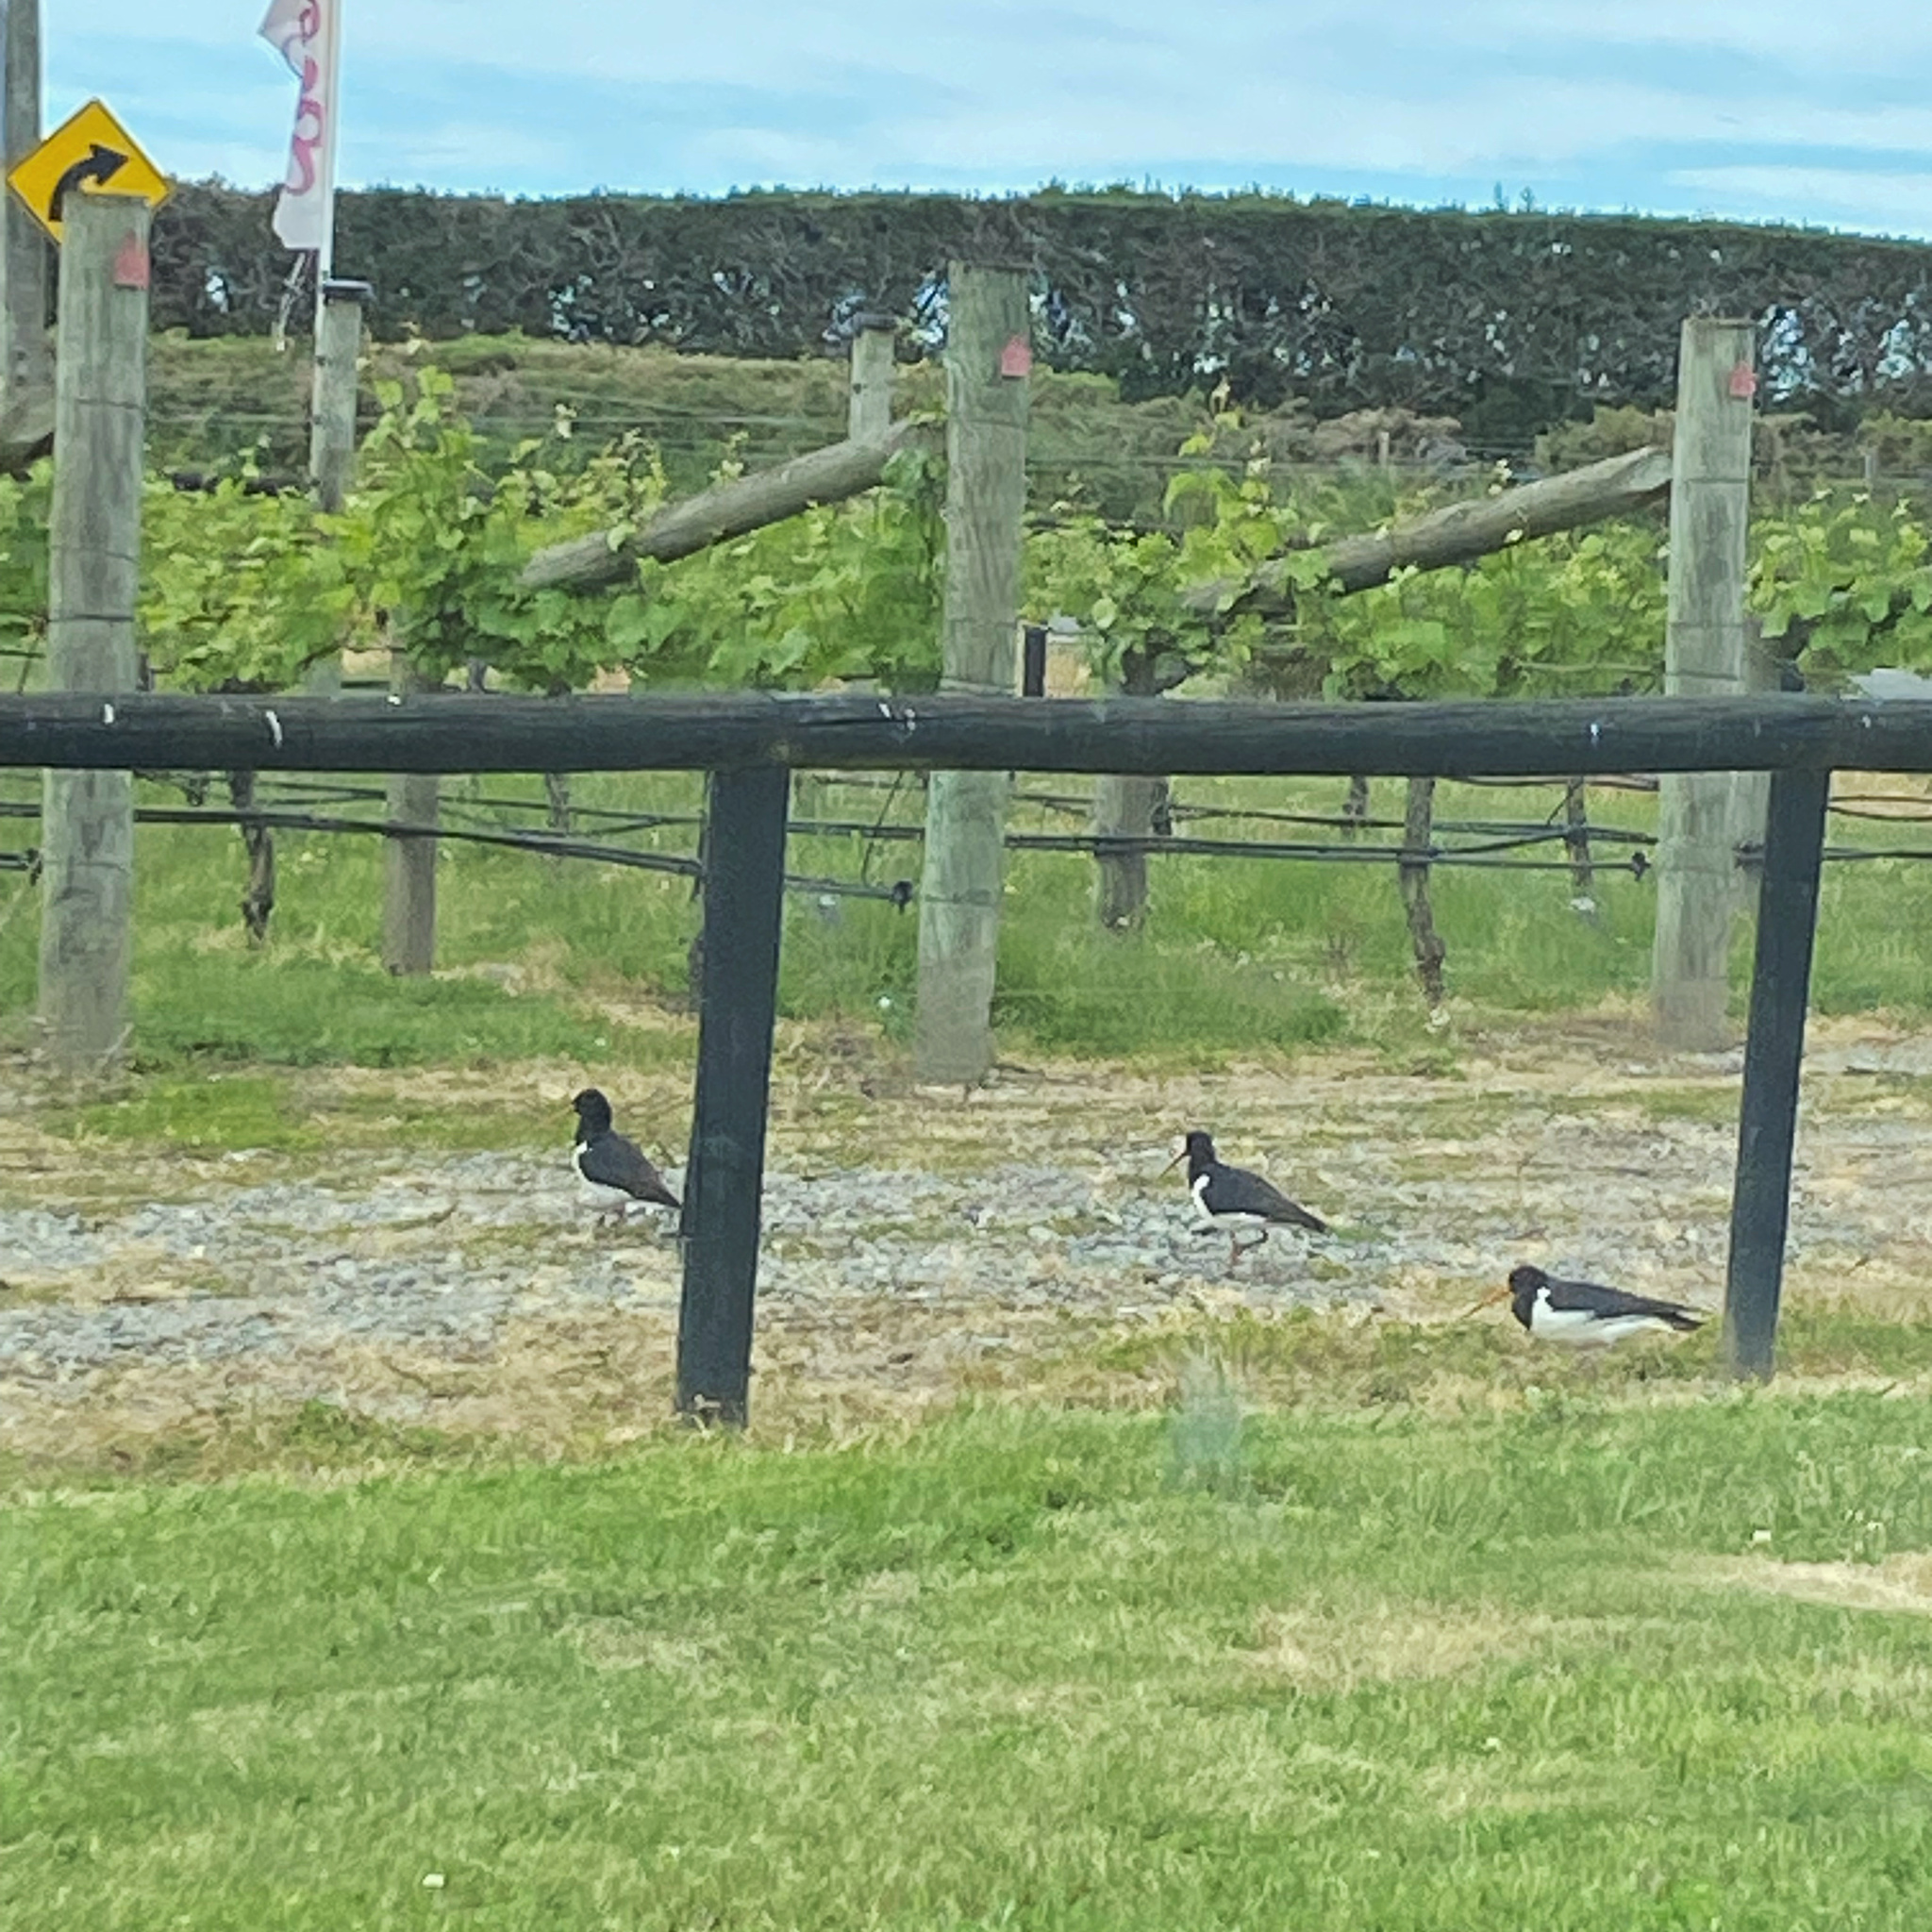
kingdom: Animalia
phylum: Chordata
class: Aves
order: Charadriiformes
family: Haematopodidae
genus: Haematopus
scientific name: Haematopus finschi
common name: South island oystercatcher
